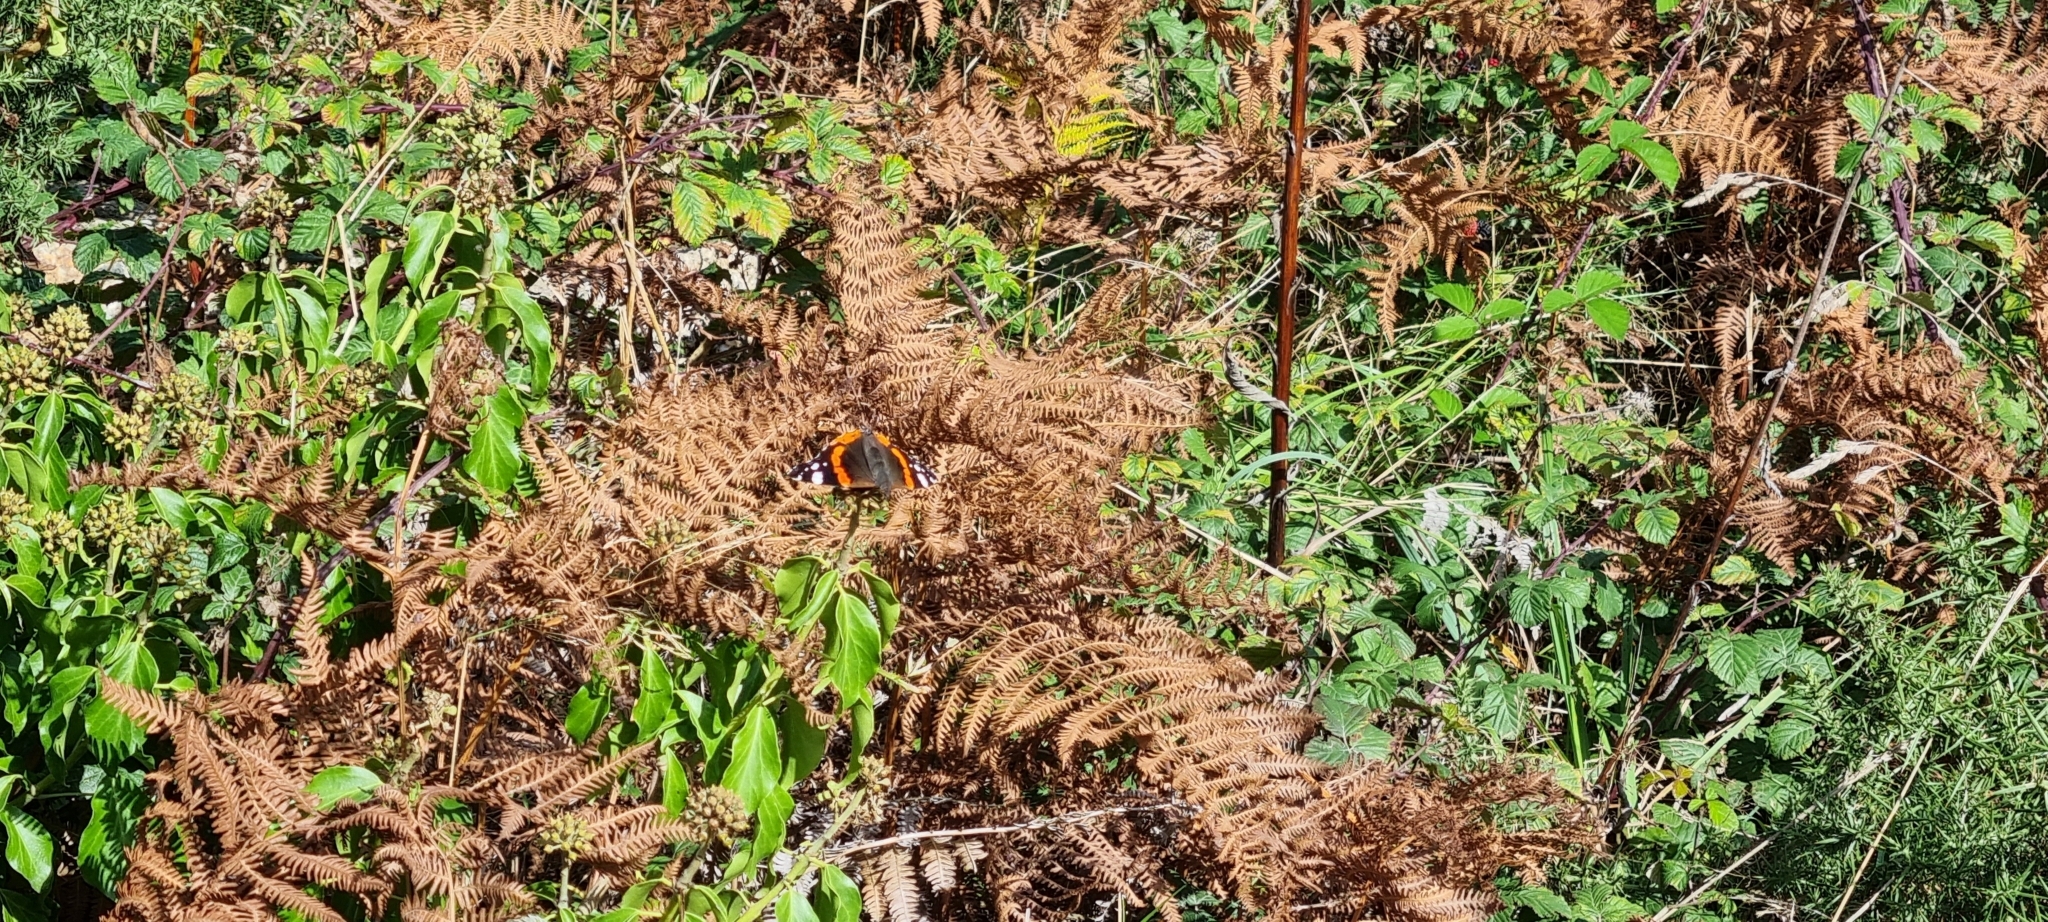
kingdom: Animalia
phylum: Arthropoda
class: Insecta
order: Lepidoptera
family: Nymphalidae
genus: Vanessa
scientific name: Vanessa atalanta
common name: Red admiral
